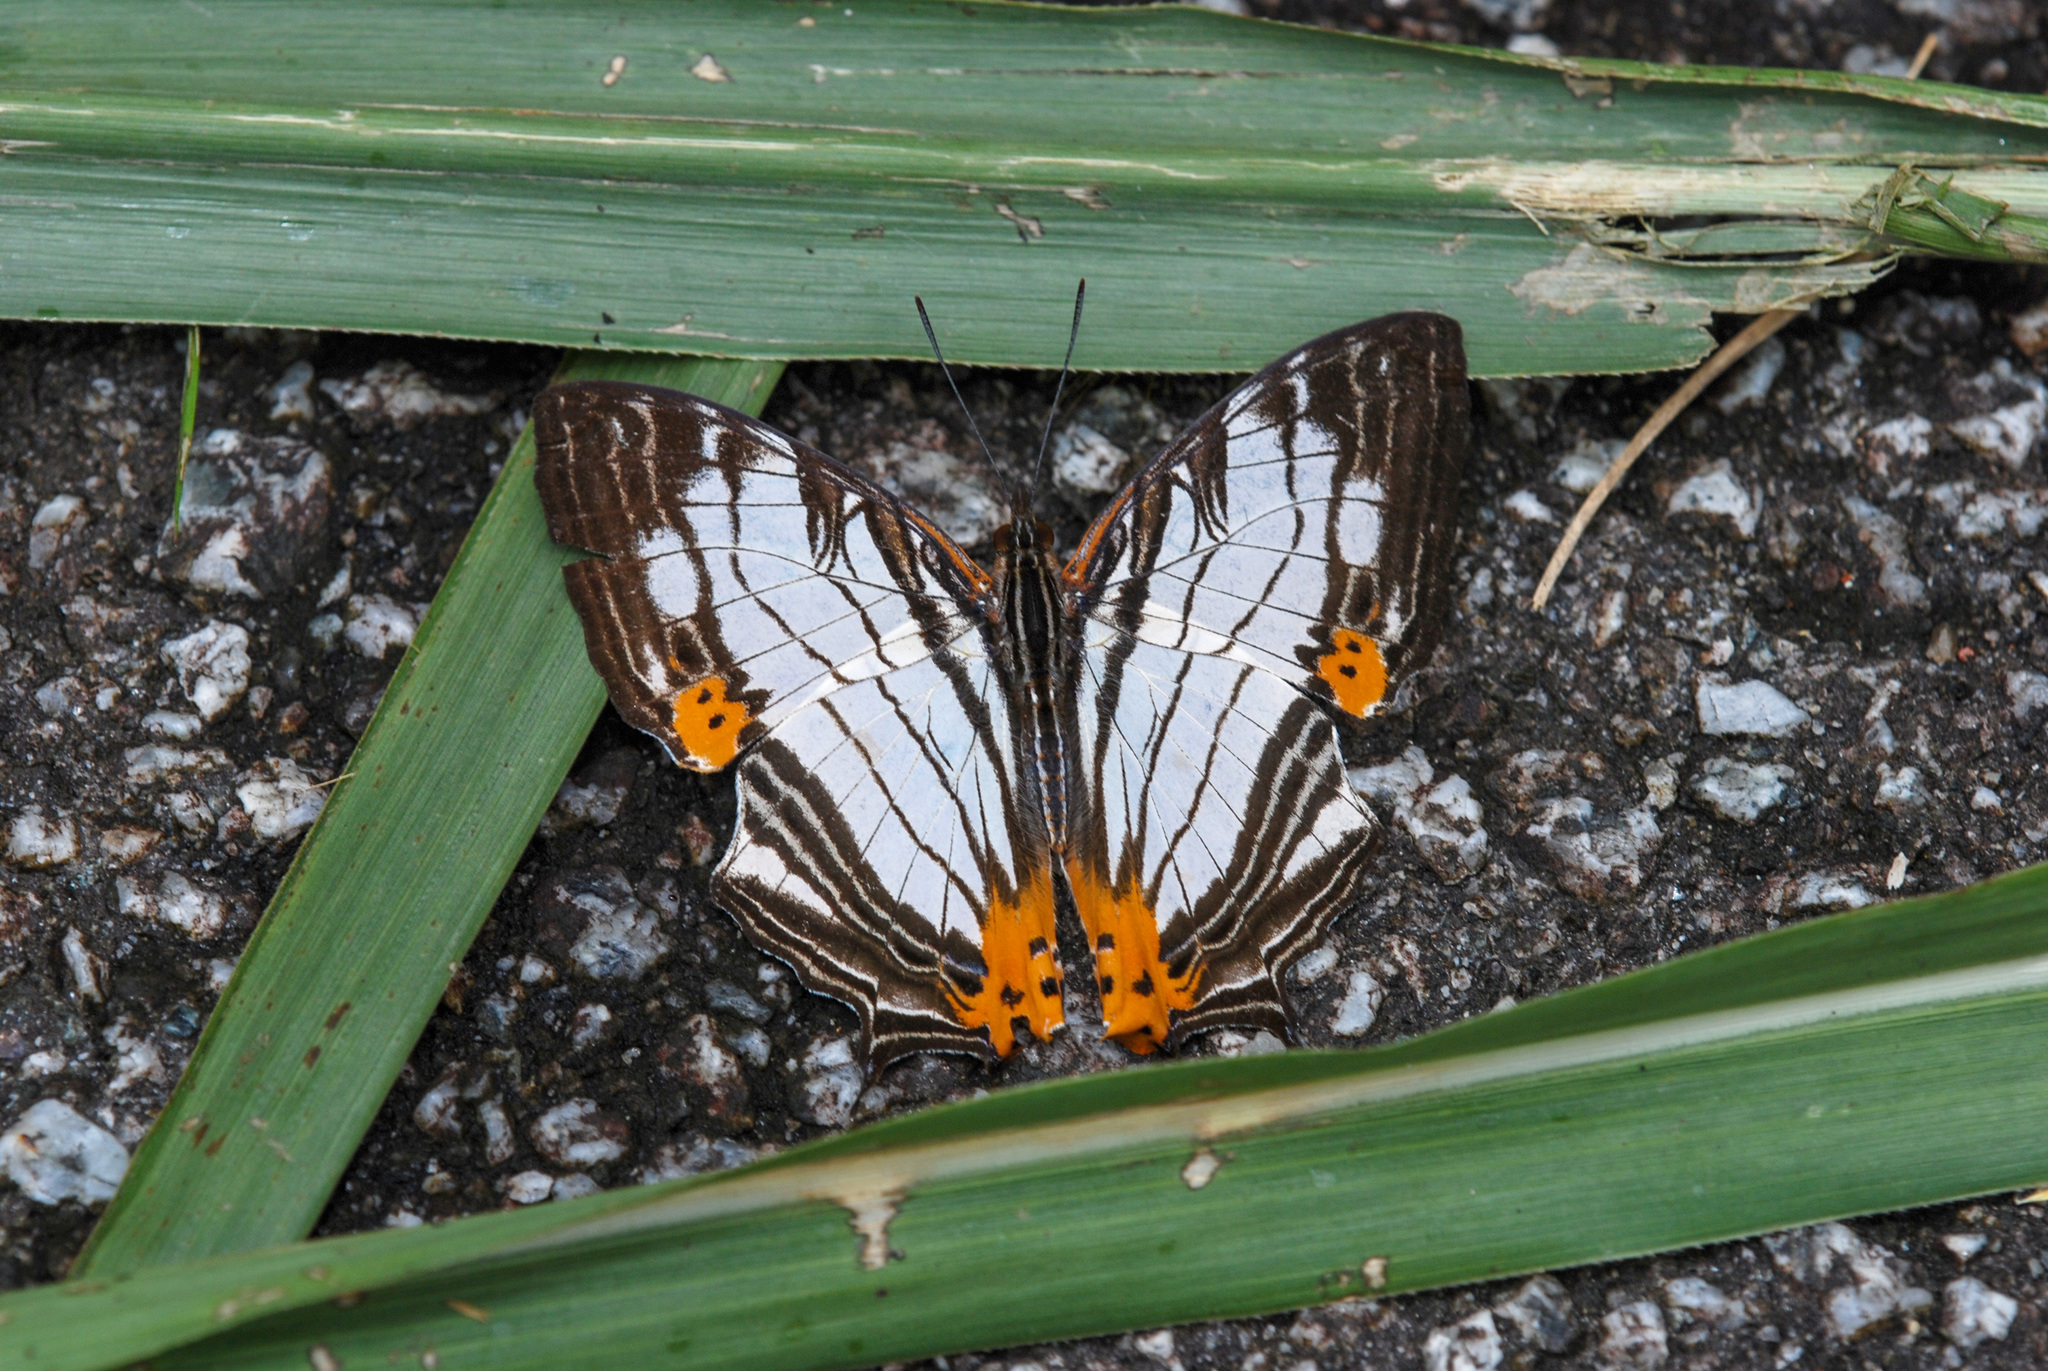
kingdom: Animalia
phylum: Arthropoda
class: Insecta
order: Lepidoptera
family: Nymphalidae
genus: Cyrestis
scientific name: Cyrestis maenalis
